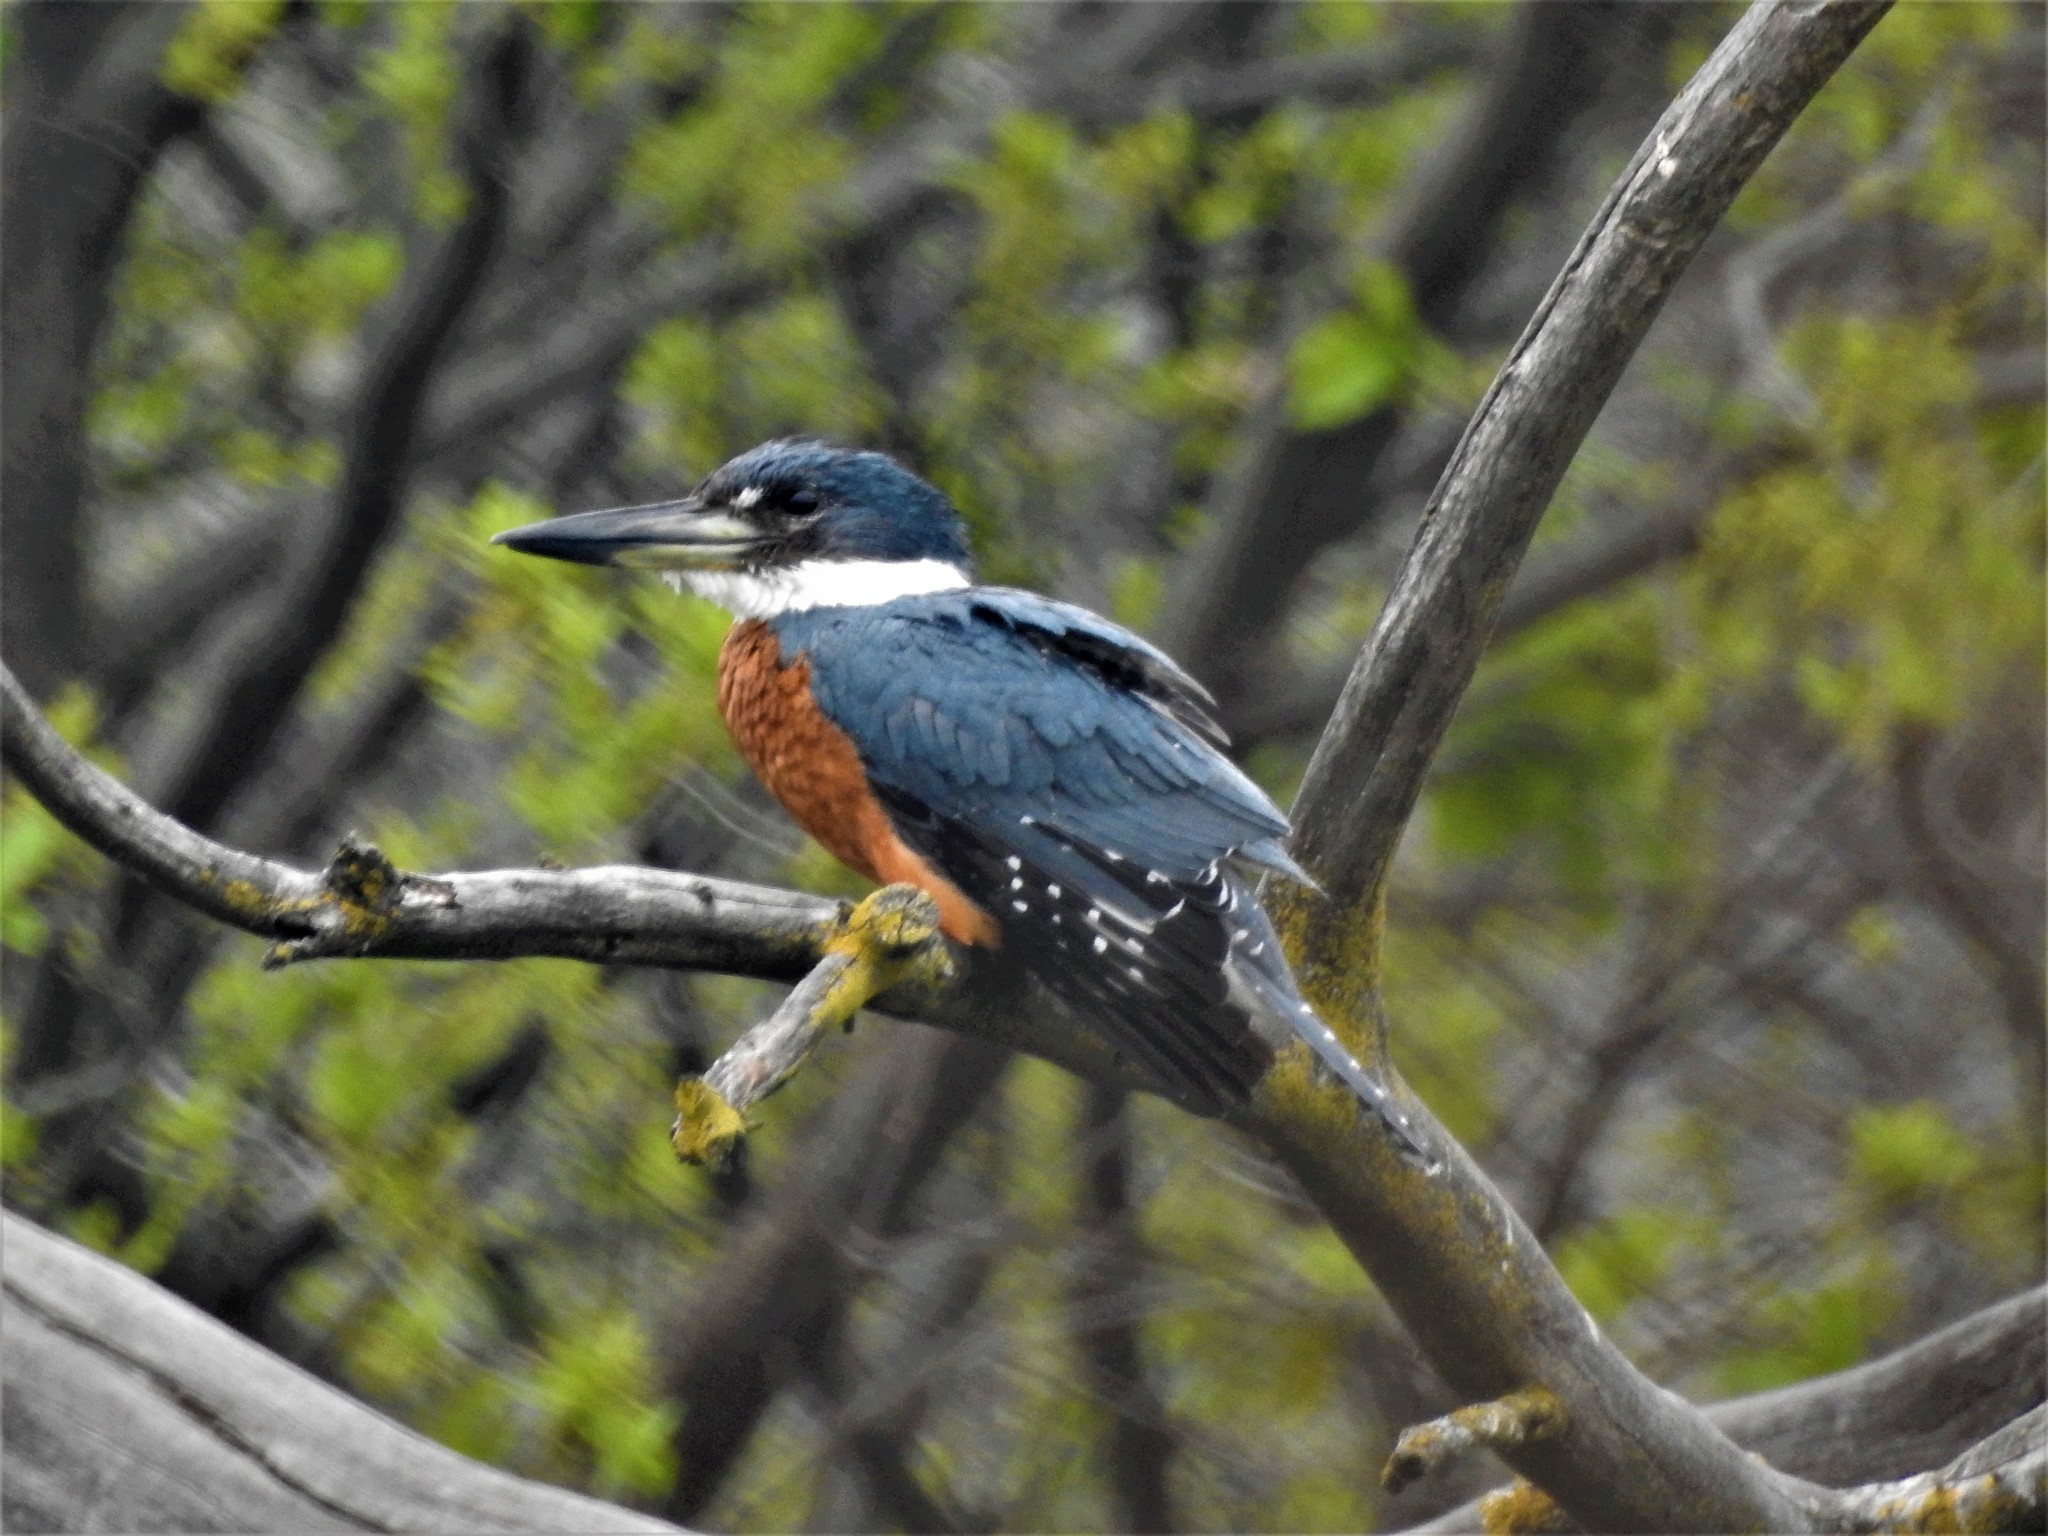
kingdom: Animalia
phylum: Chordata
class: Aves
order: Coraciiformes
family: Alcedinidae
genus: Megaceryle
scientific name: Megaceryle torquata
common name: Ringed kingfisher
